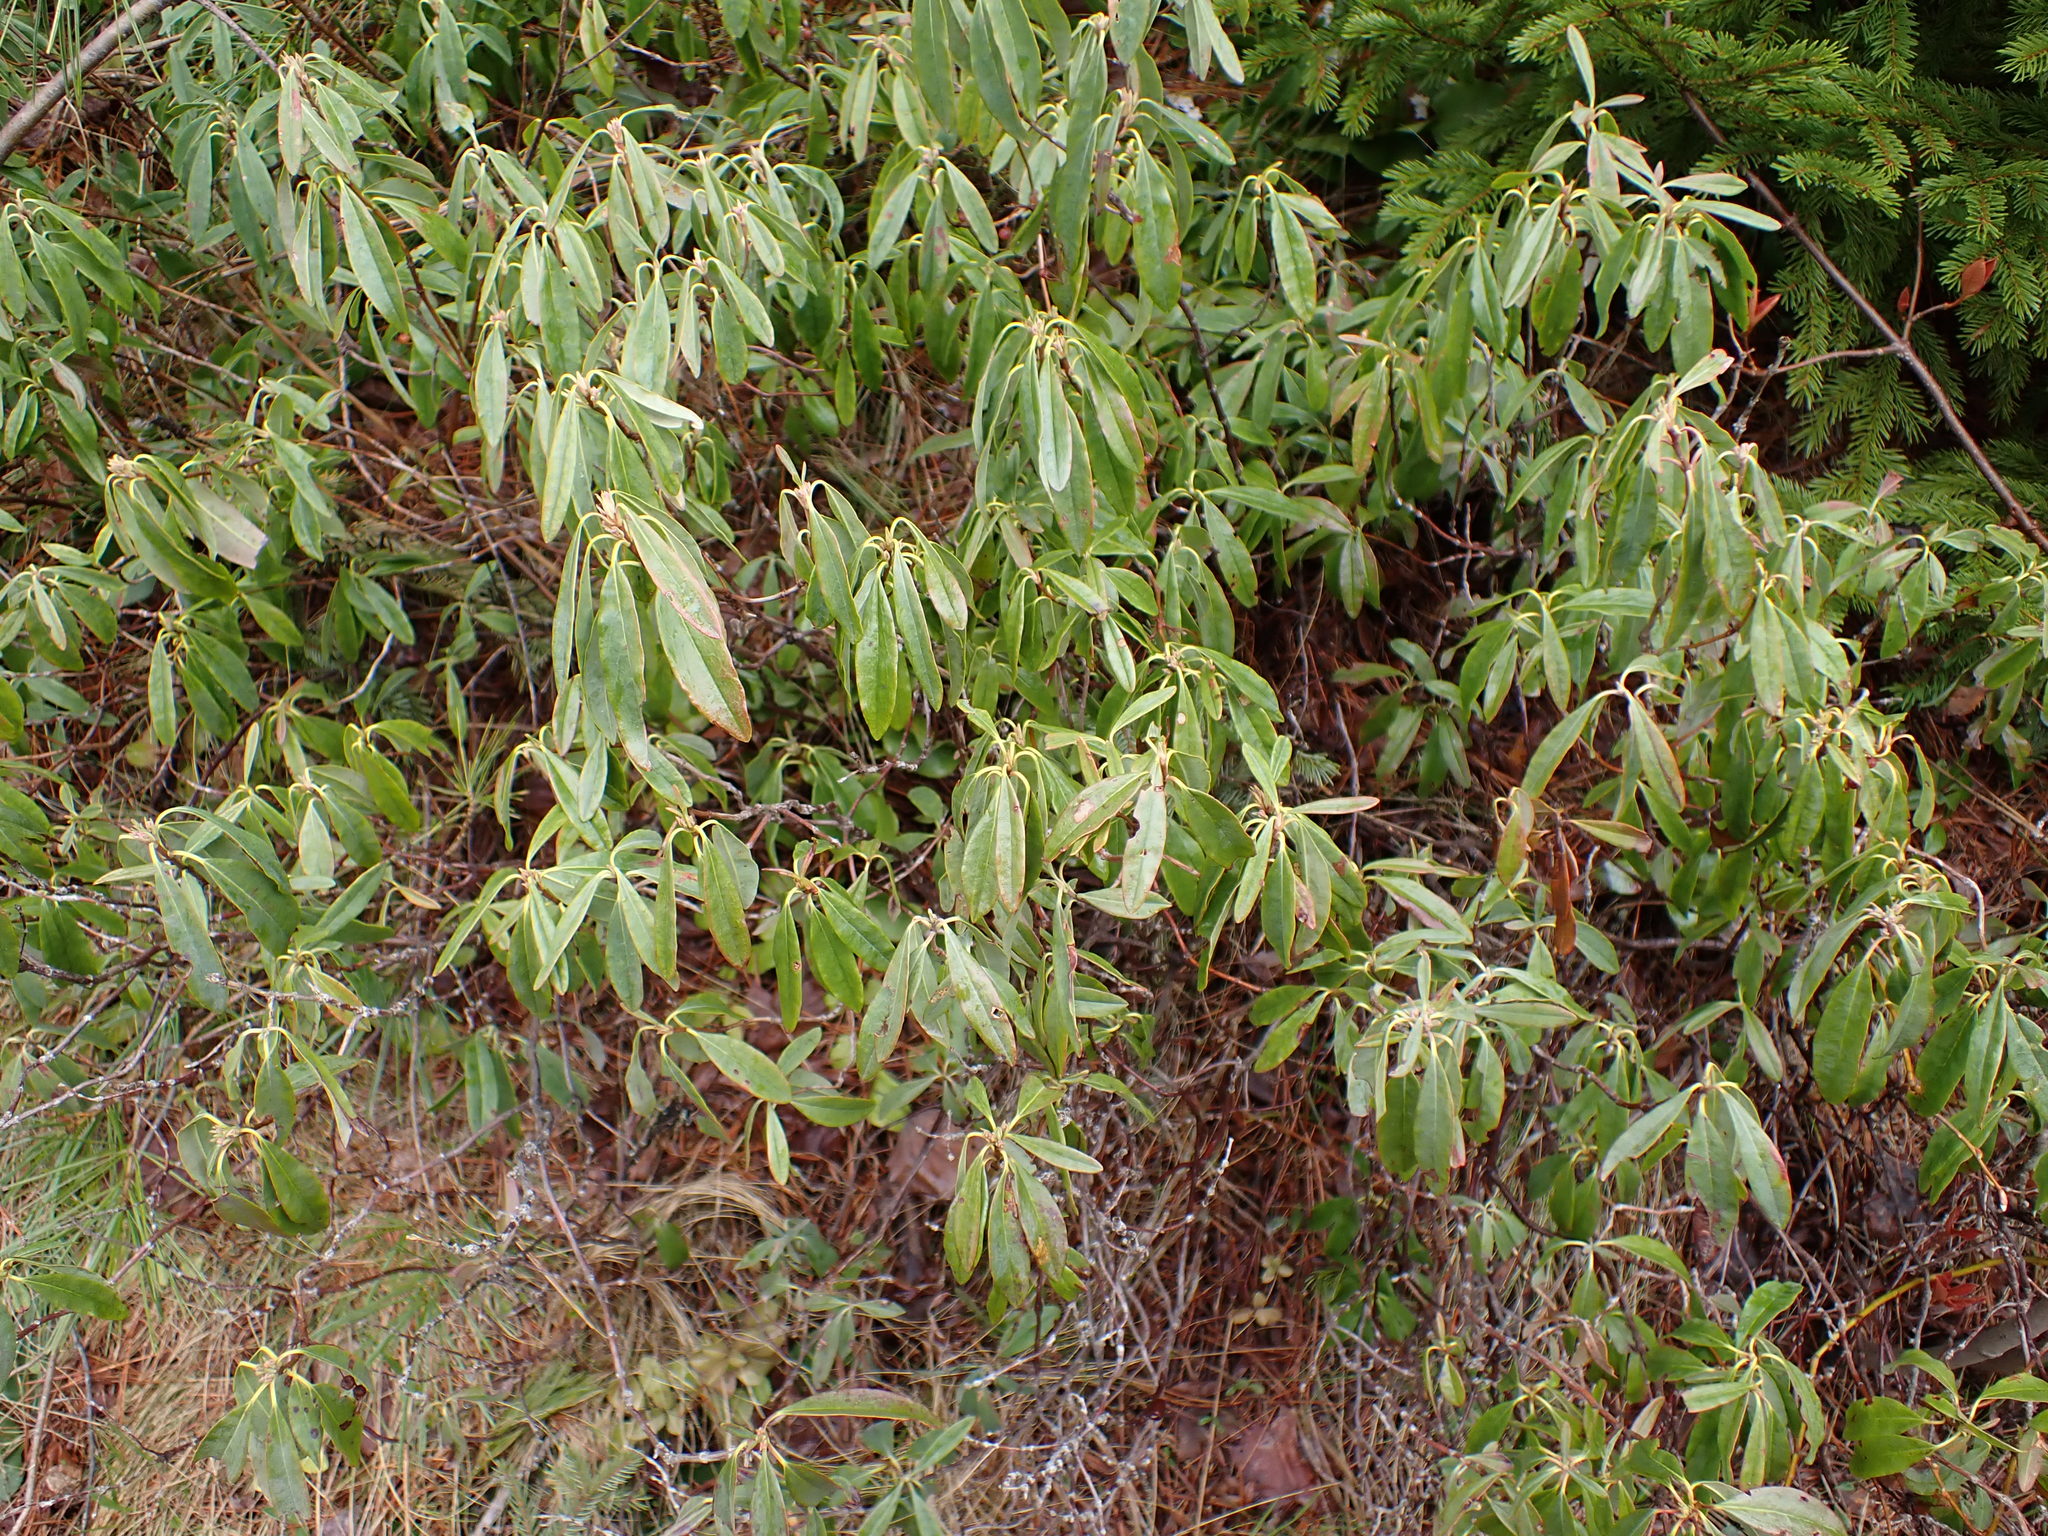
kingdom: Plantae
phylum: Tracheophyta
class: Magnoliopsida
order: Ericales
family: Ericaceae
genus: Kalmia
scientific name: Kalmia angustifolia
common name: Sheep-laurel
